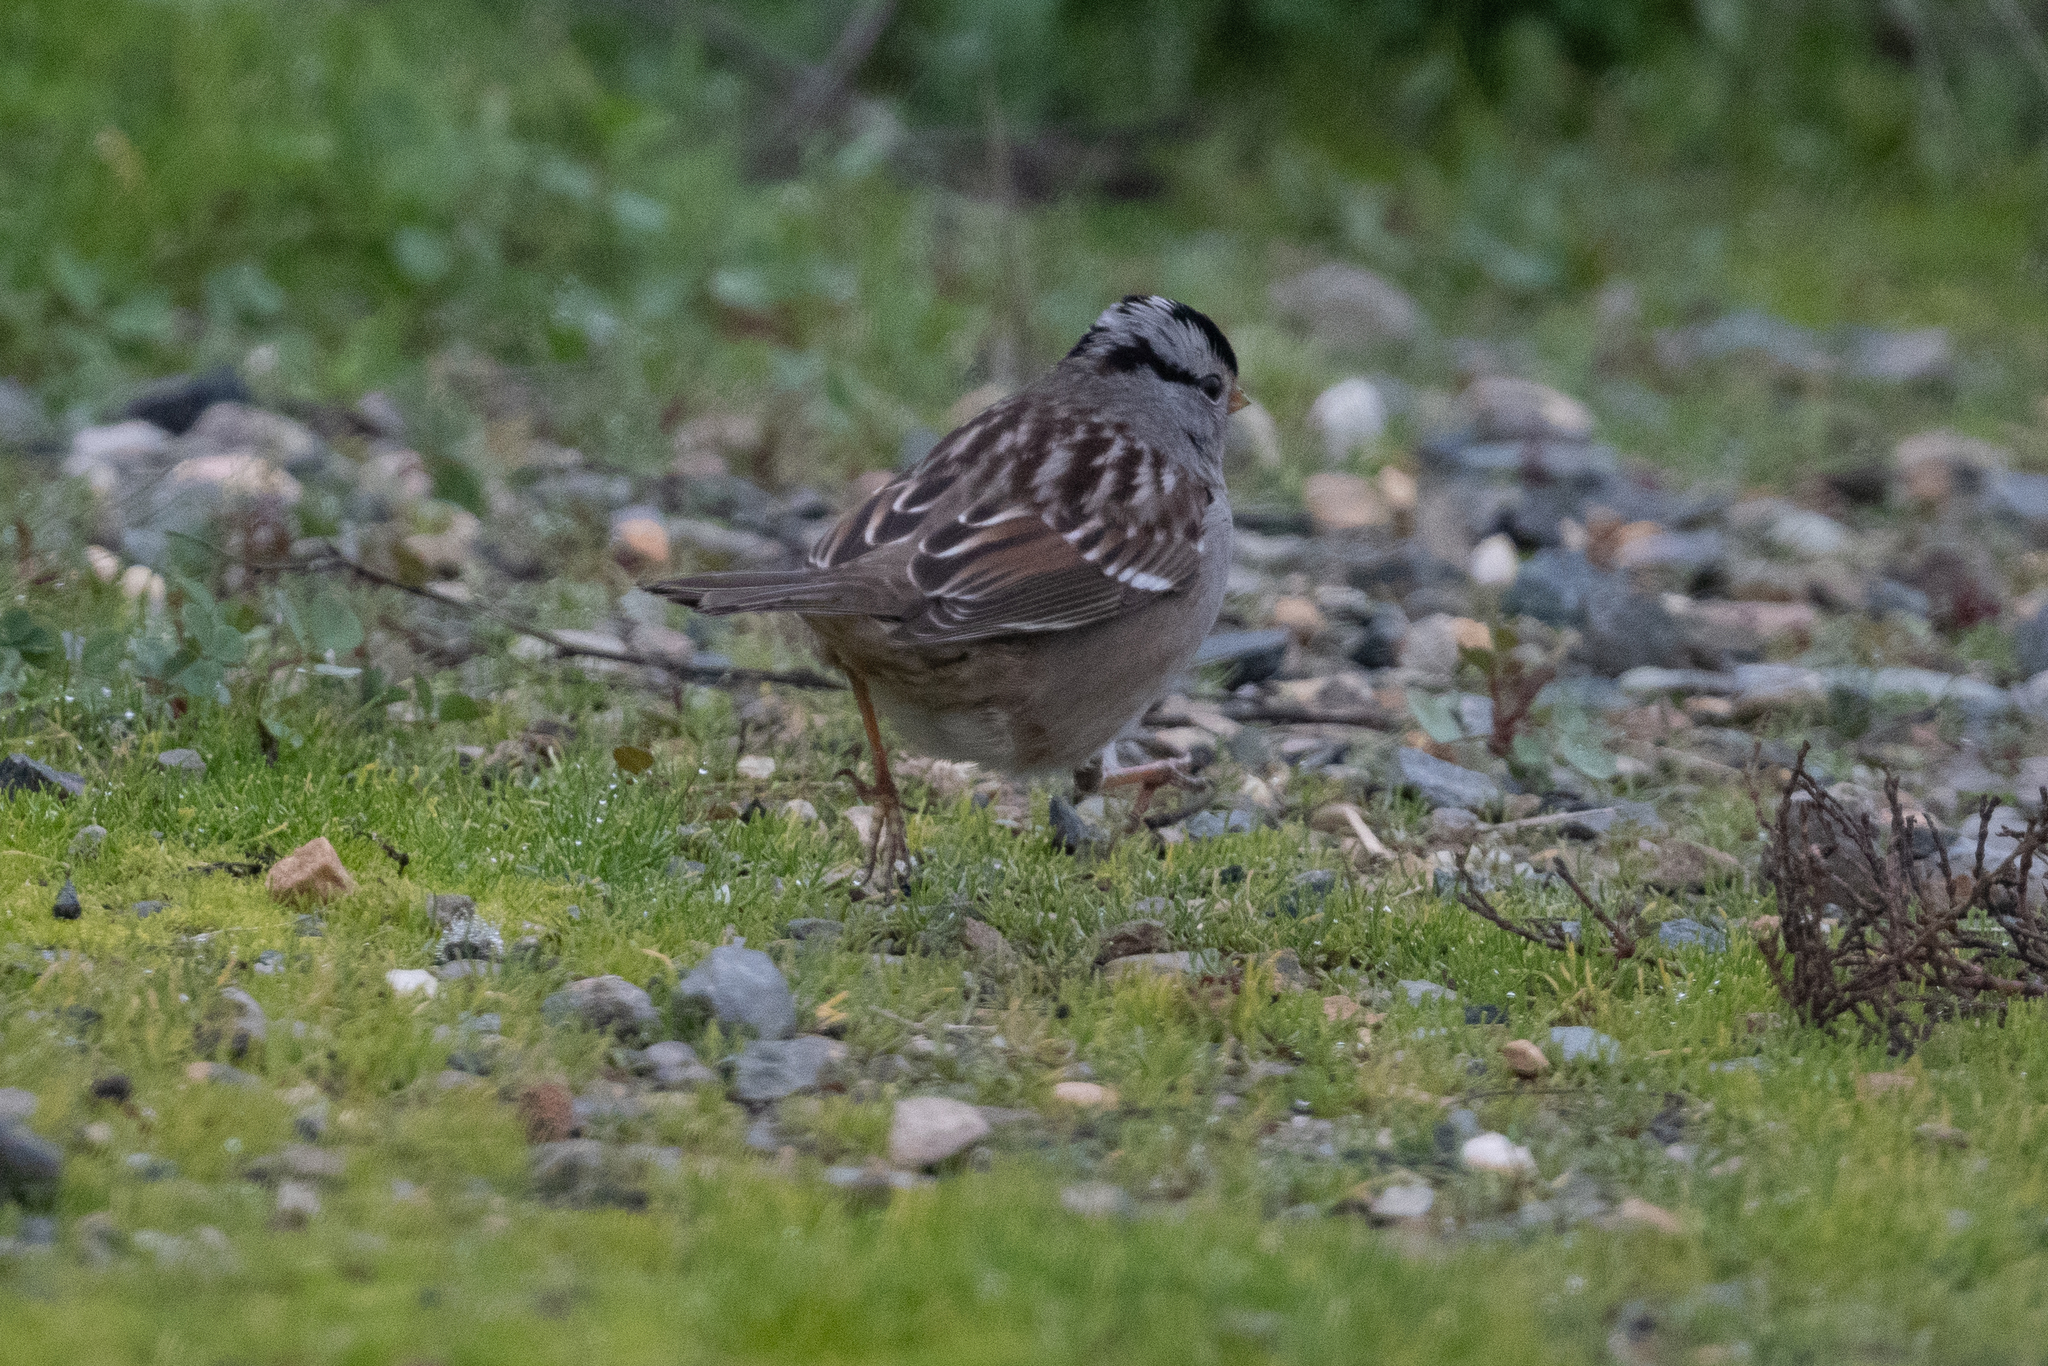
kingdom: Animalia
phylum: Chordata
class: Aves
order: Passeriformes
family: Passerellidae
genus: Zonotrichia
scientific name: Zonotrichia leucophrys
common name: White-crowned sparrow
